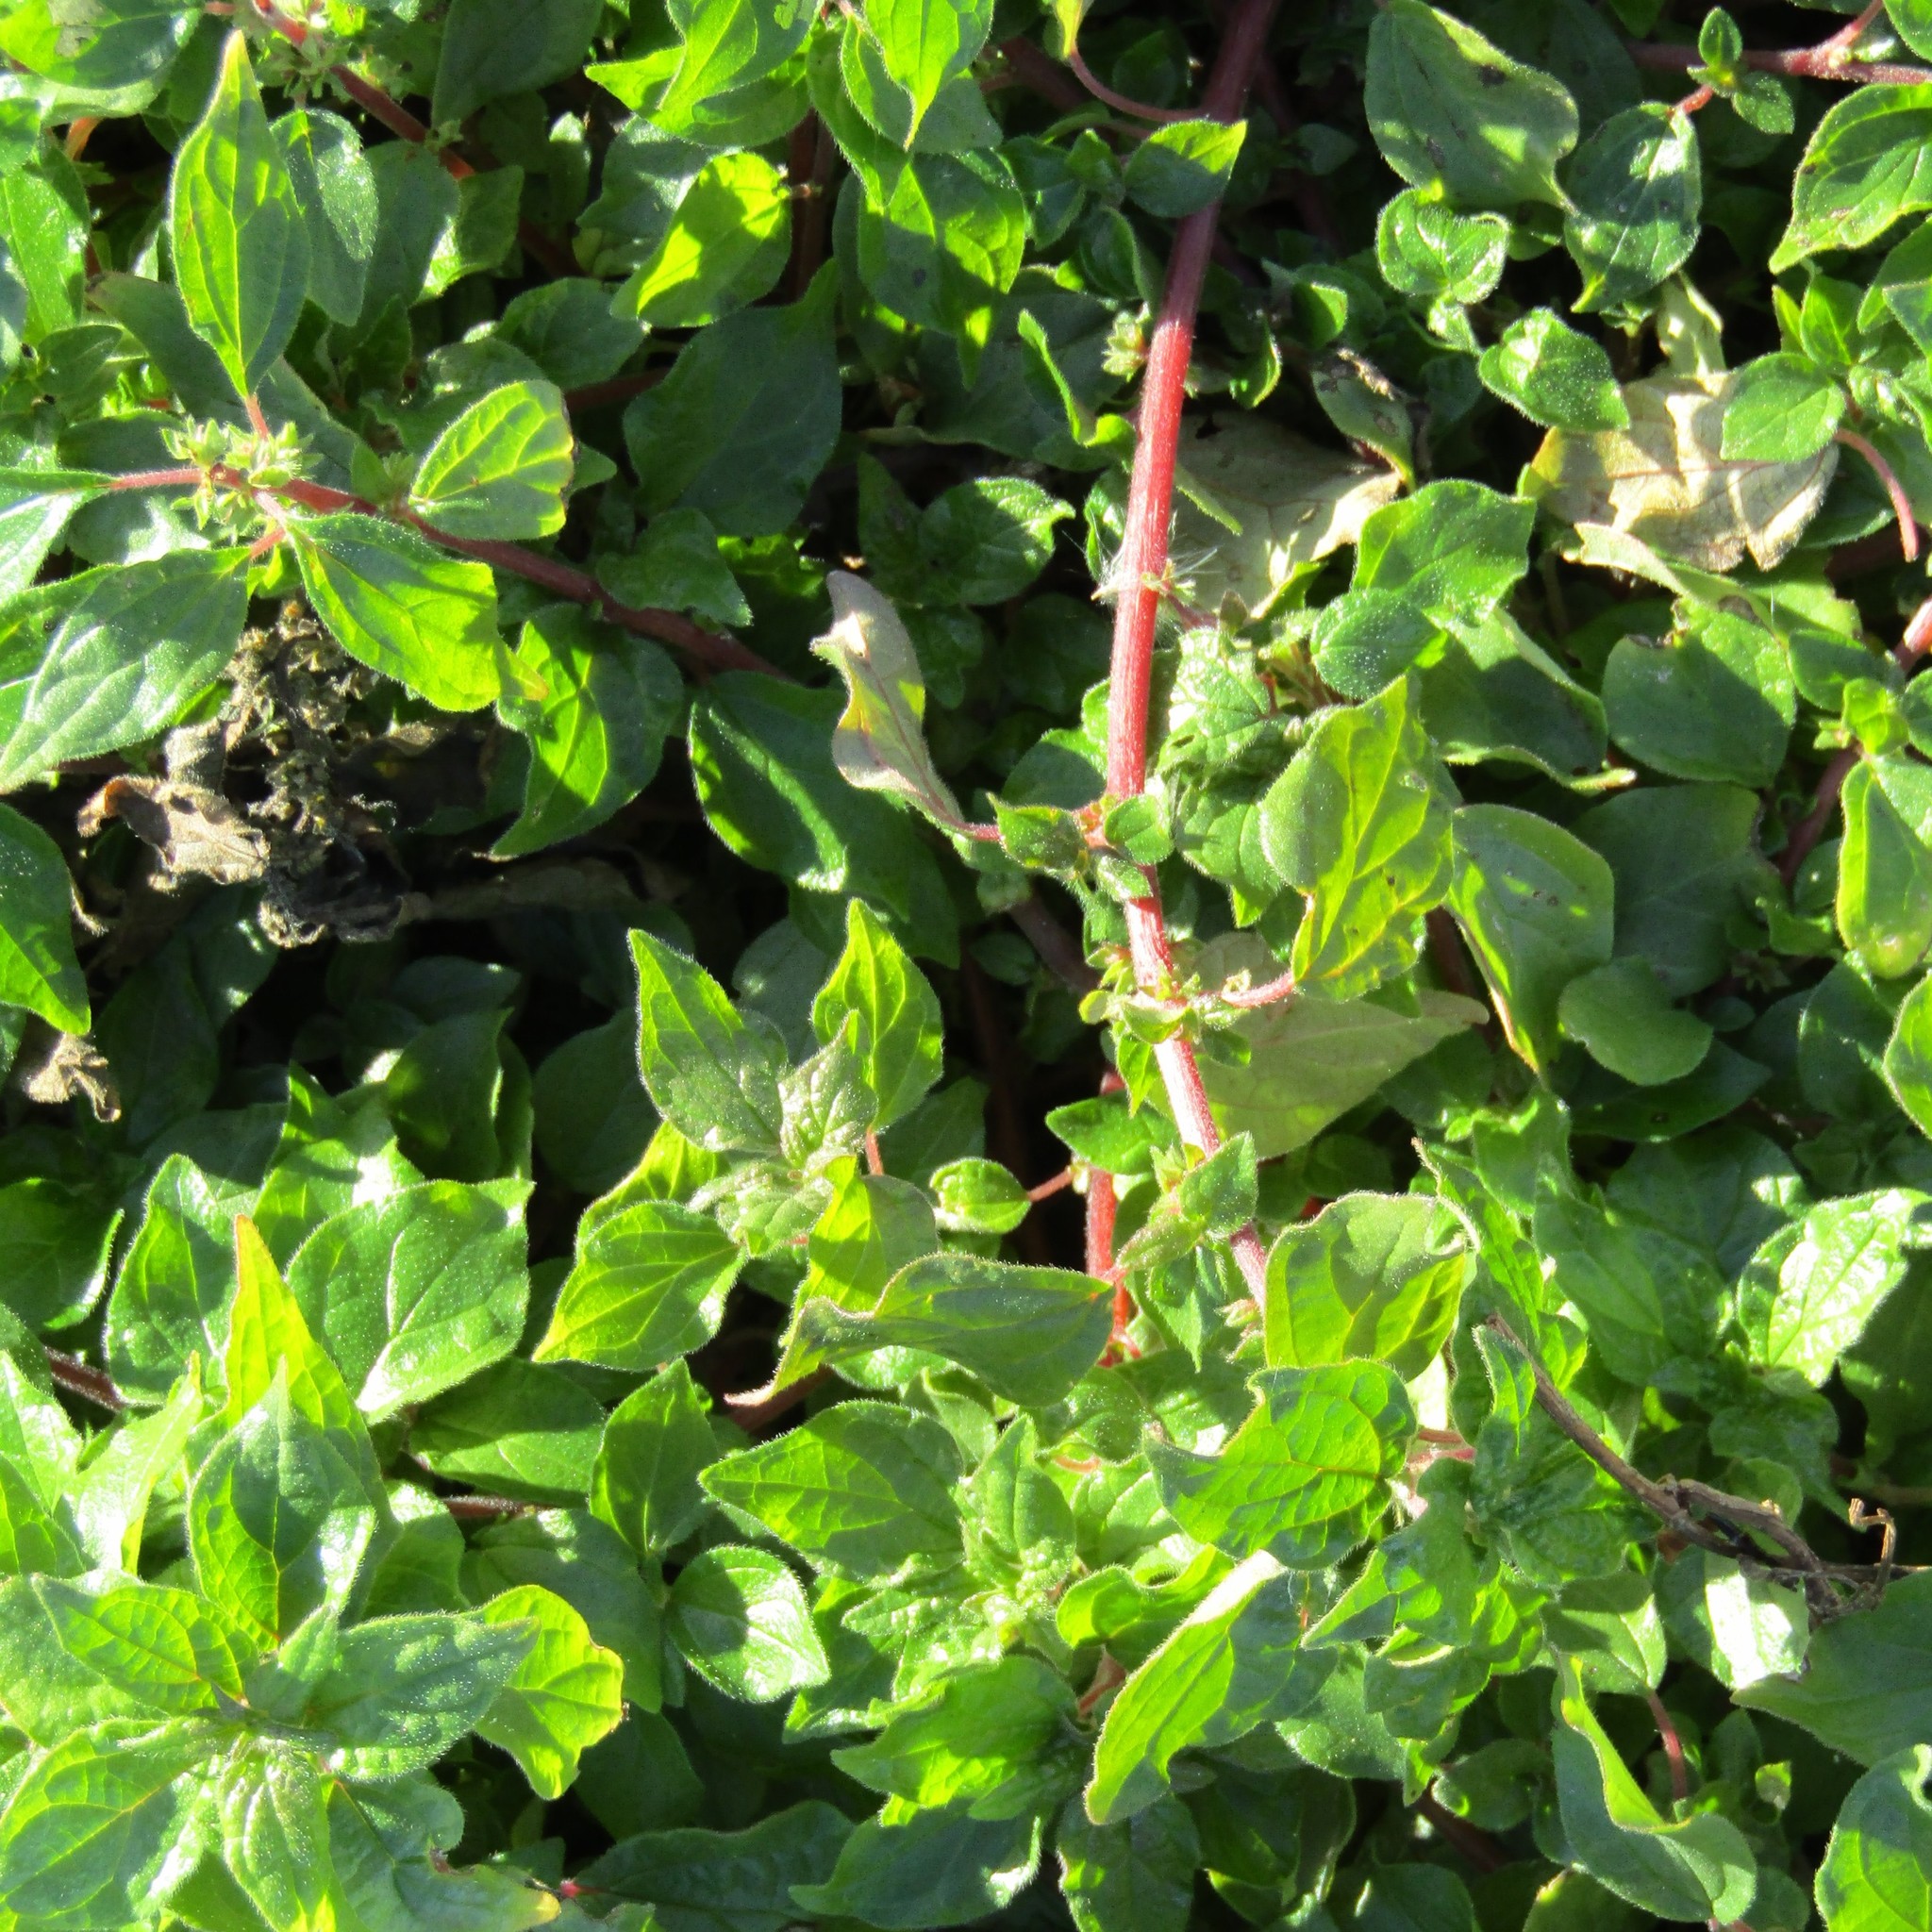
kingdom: Plantae
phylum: Tracheophyta
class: Magnoliopsida
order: Rosales
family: Urticaceae
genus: Parietaria
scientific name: Parietaria judaica
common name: Pellitory-of-the-wall
